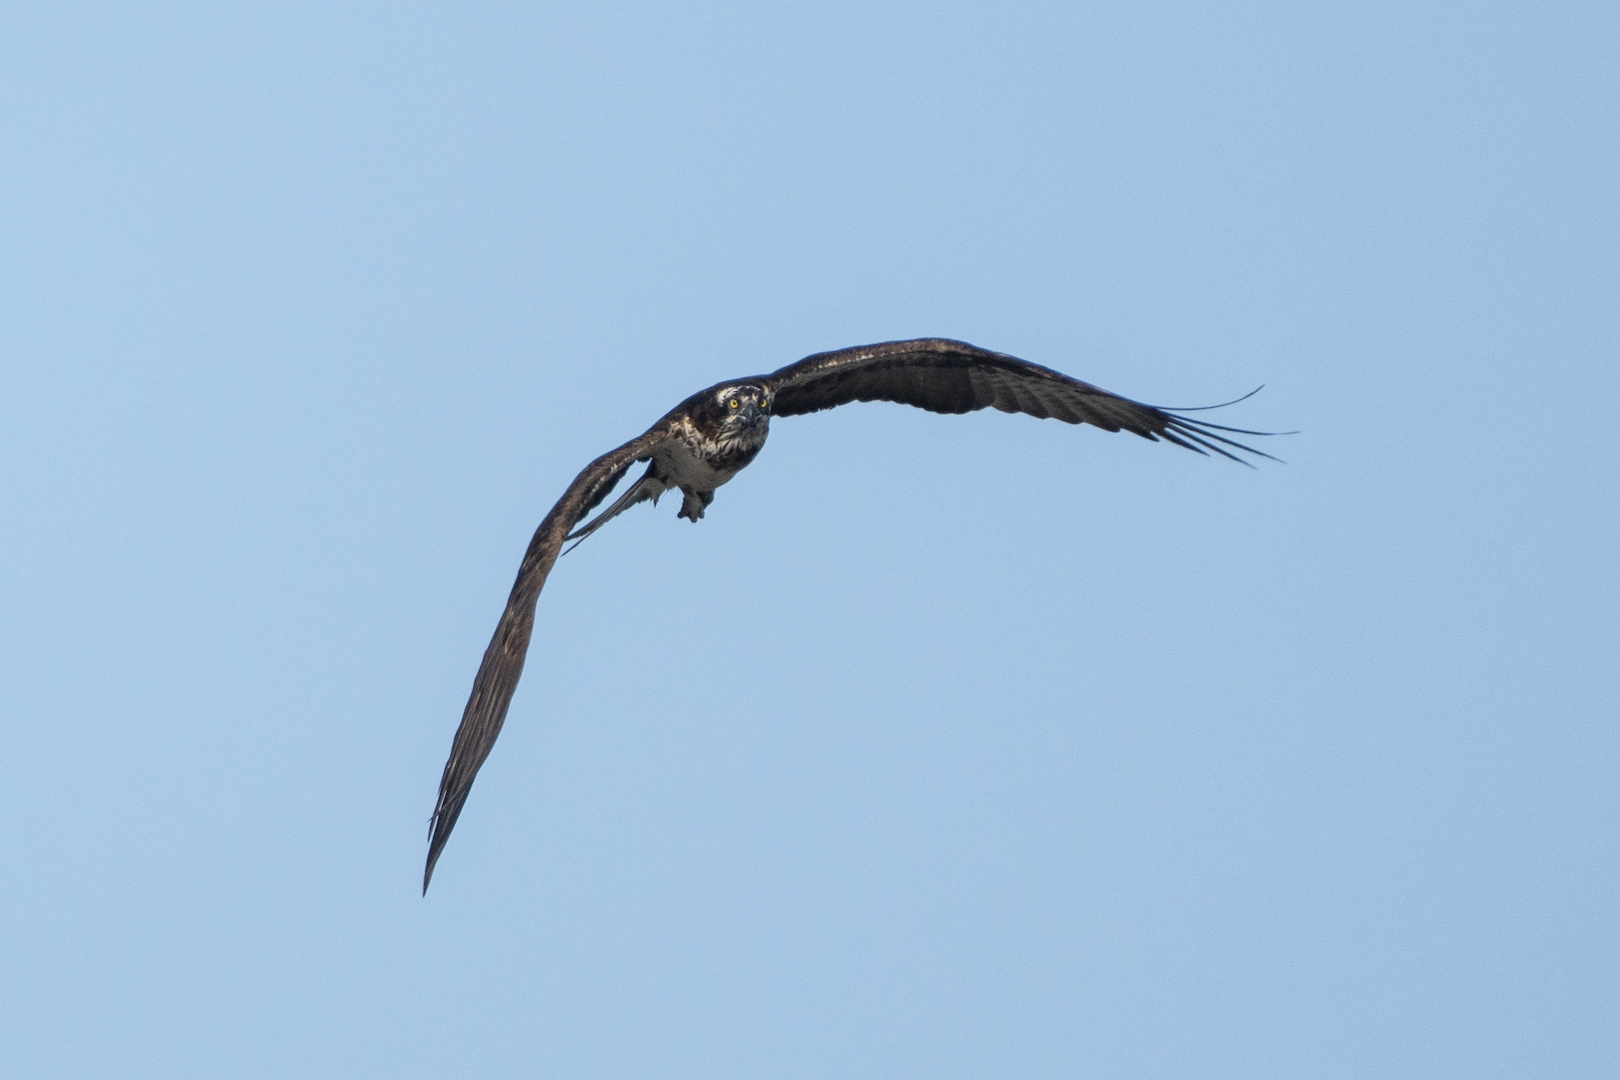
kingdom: Animalia
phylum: Chordata
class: Aves
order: Accipitriformes
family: Pandionidae
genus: Pandion
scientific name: Pandion haliaetus
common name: Osprey
